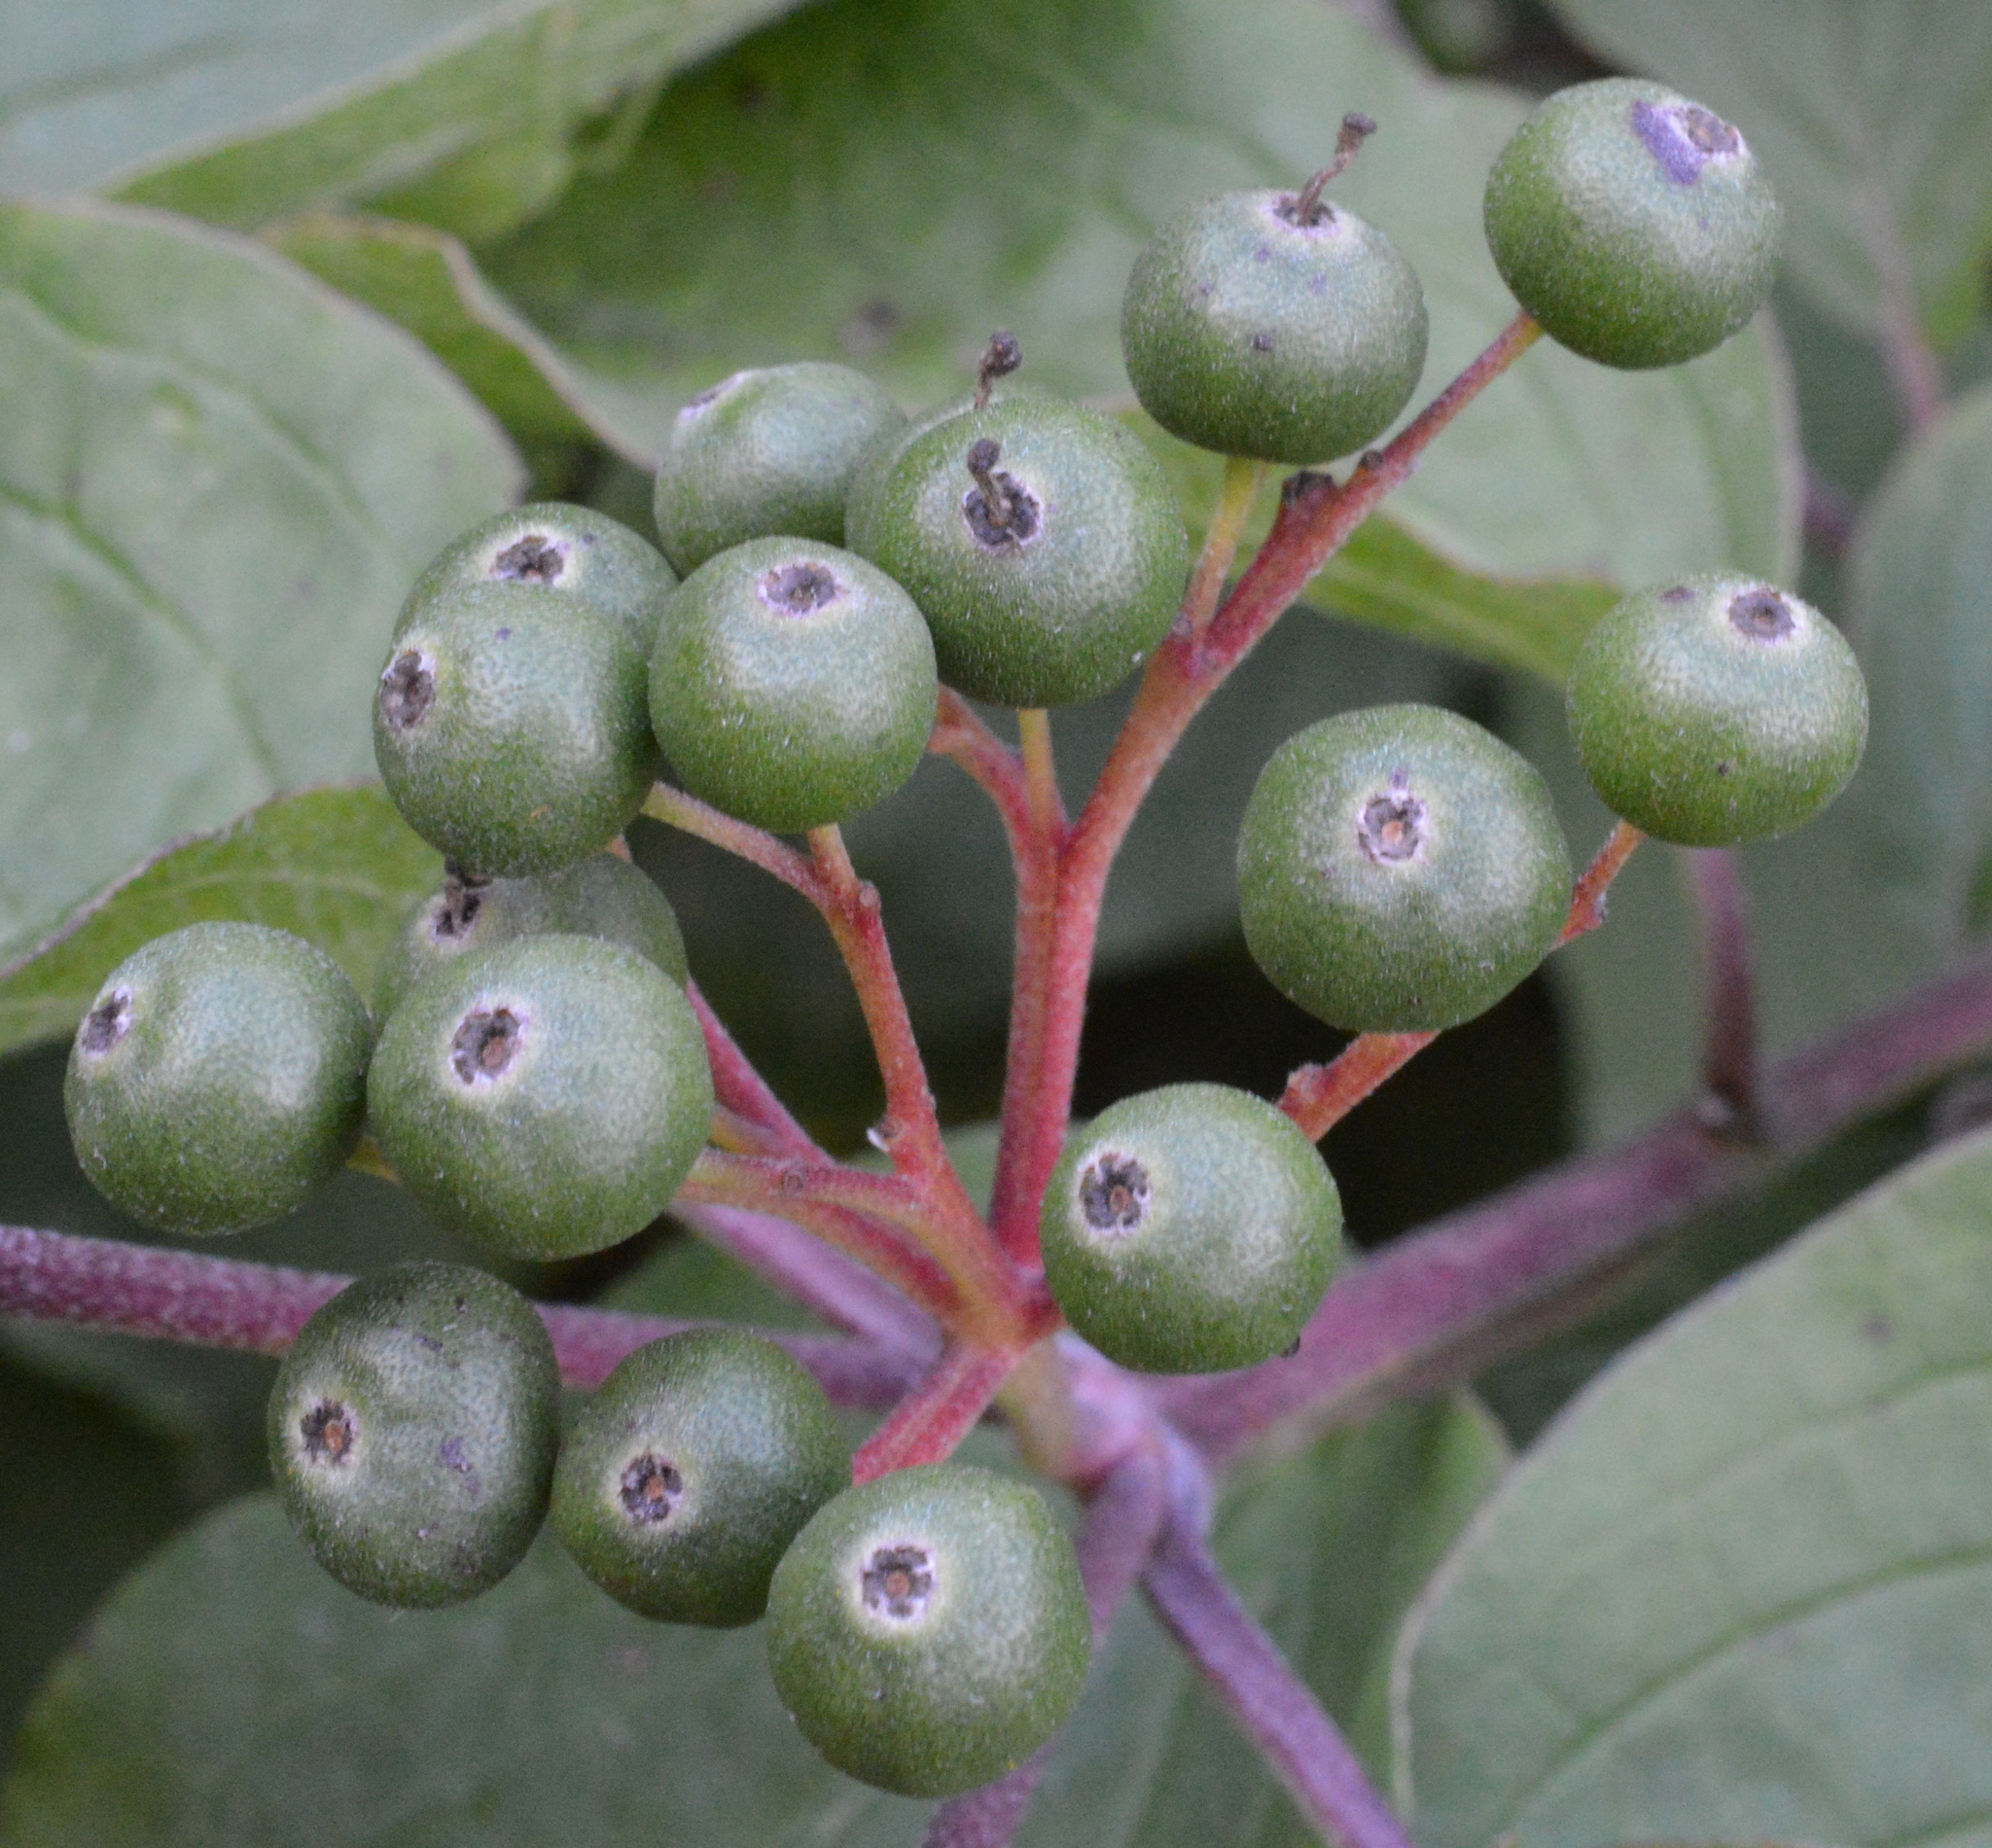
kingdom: Plantae
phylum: Tracheophyta
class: Magnoliopsida
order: Cornales
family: Cornaceae
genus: Cornus
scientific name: Cornus sanguinea
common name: Dogwood
